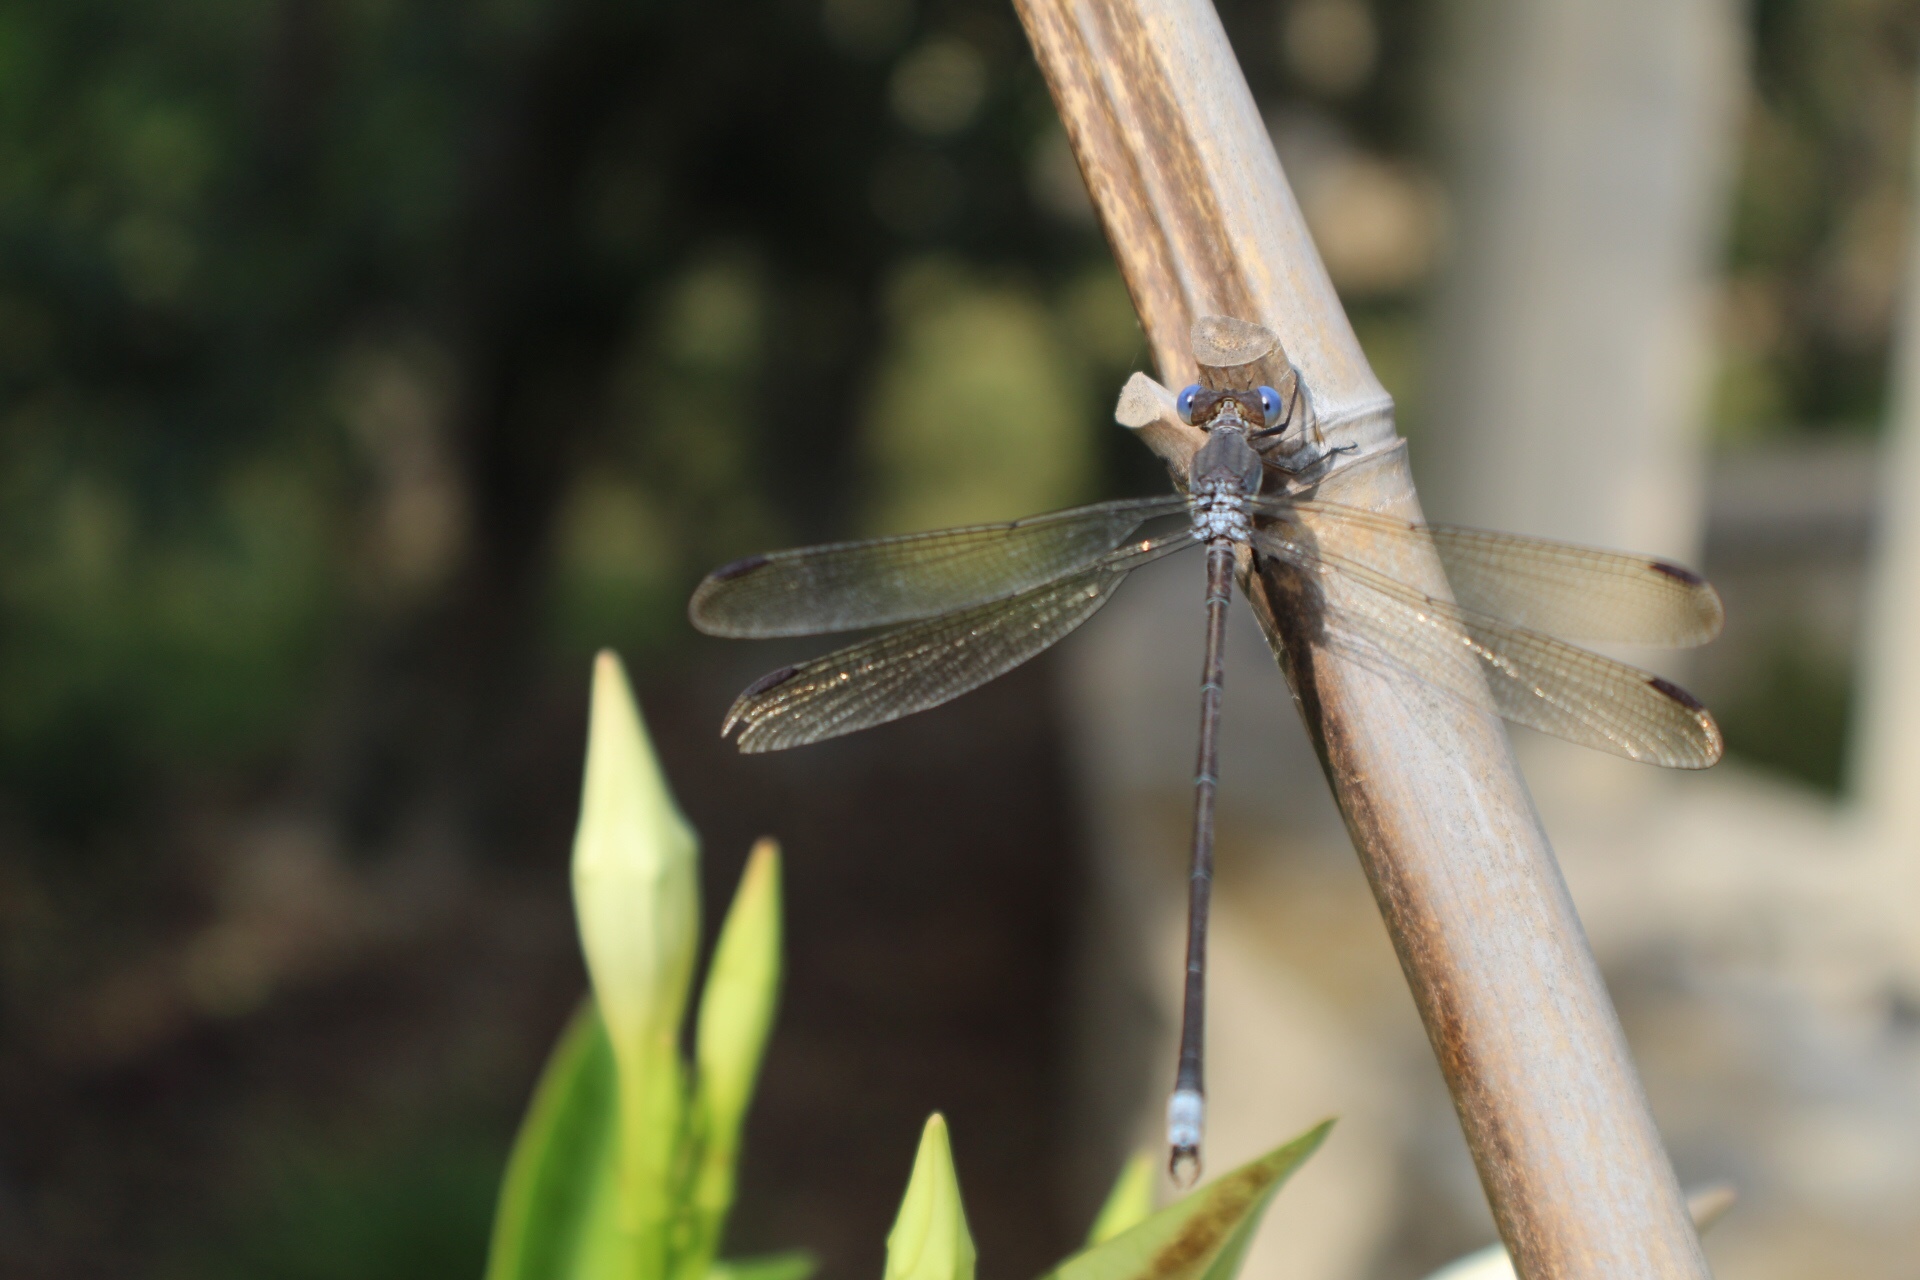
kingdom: Animalia
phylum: Arthropoda
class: Insecta
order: Odonata
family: Lestidae
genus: Archilestes
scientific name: Archilestes grandis
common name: Great spreadwing
